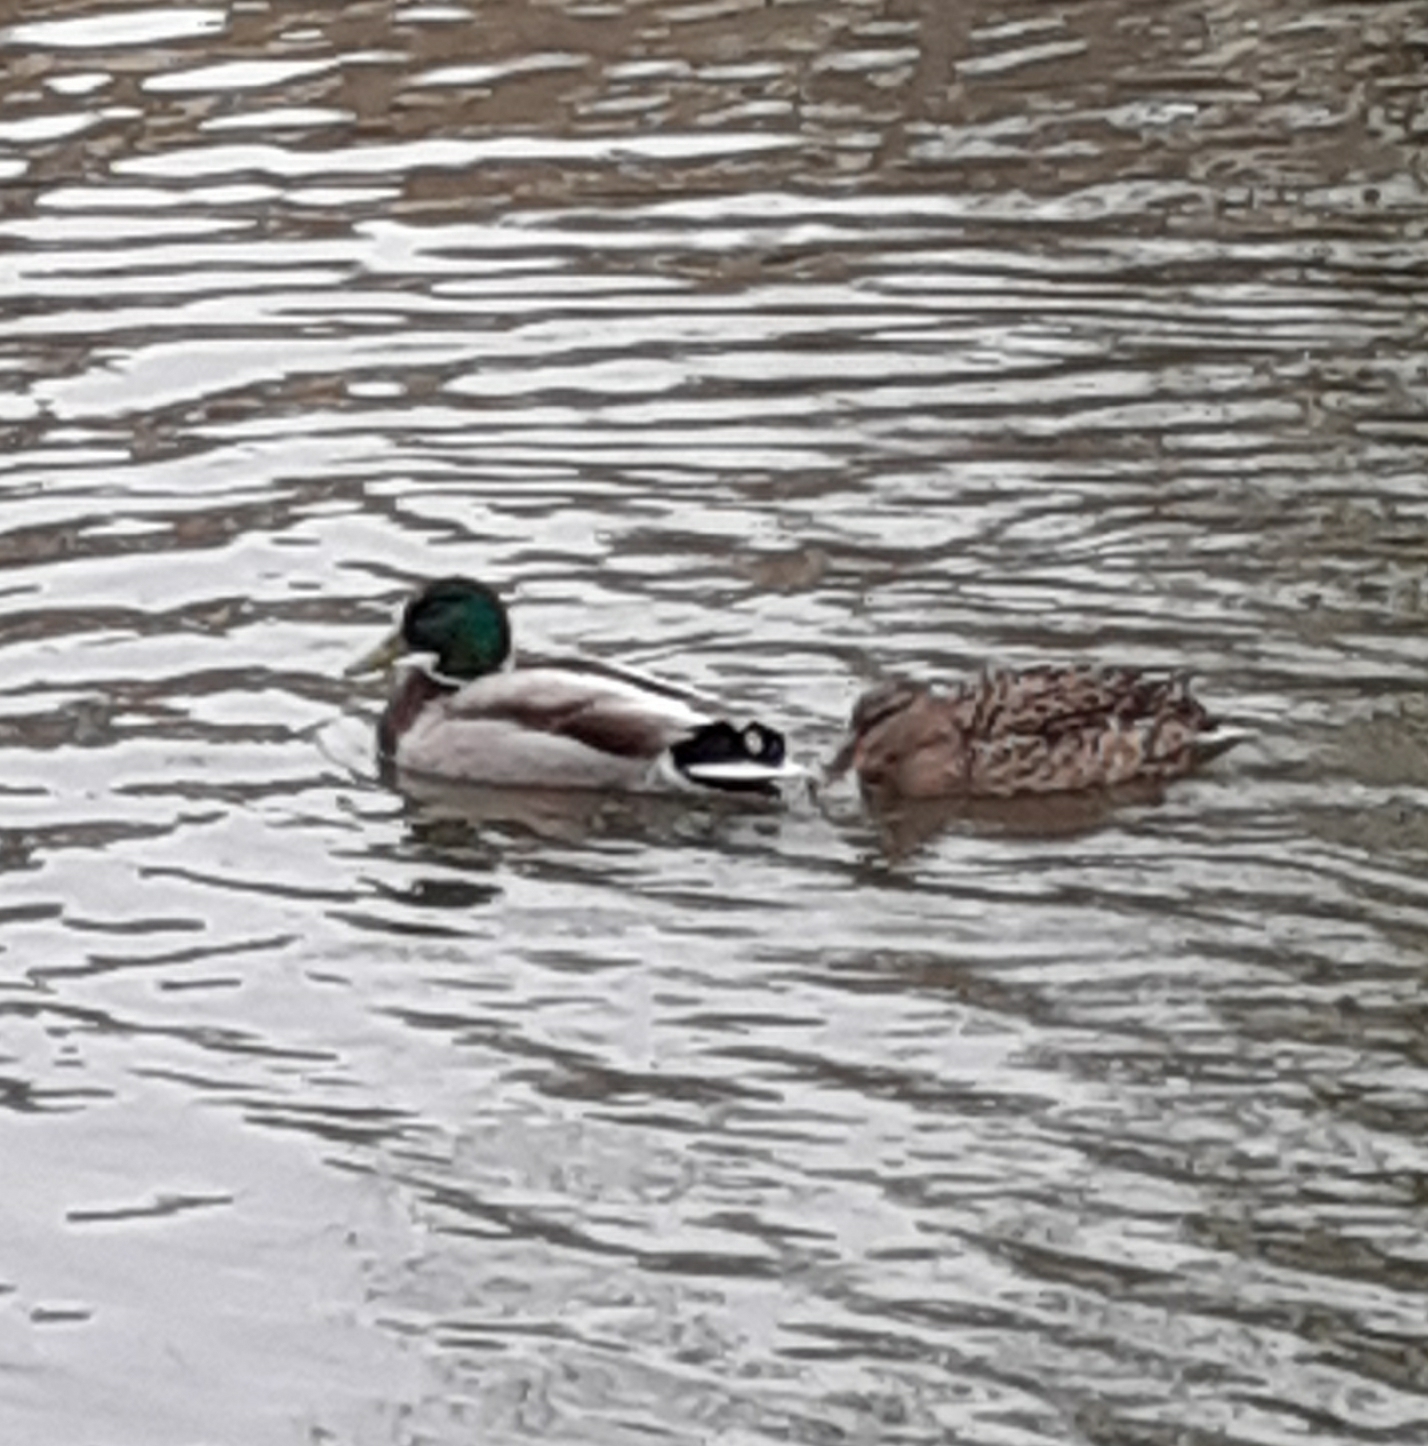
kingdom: Animalia
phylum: Chordata
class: Aves
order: Anseriformes
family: Anatidae
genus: Anas
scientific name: Anas platyrhynchos
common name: Mallard
